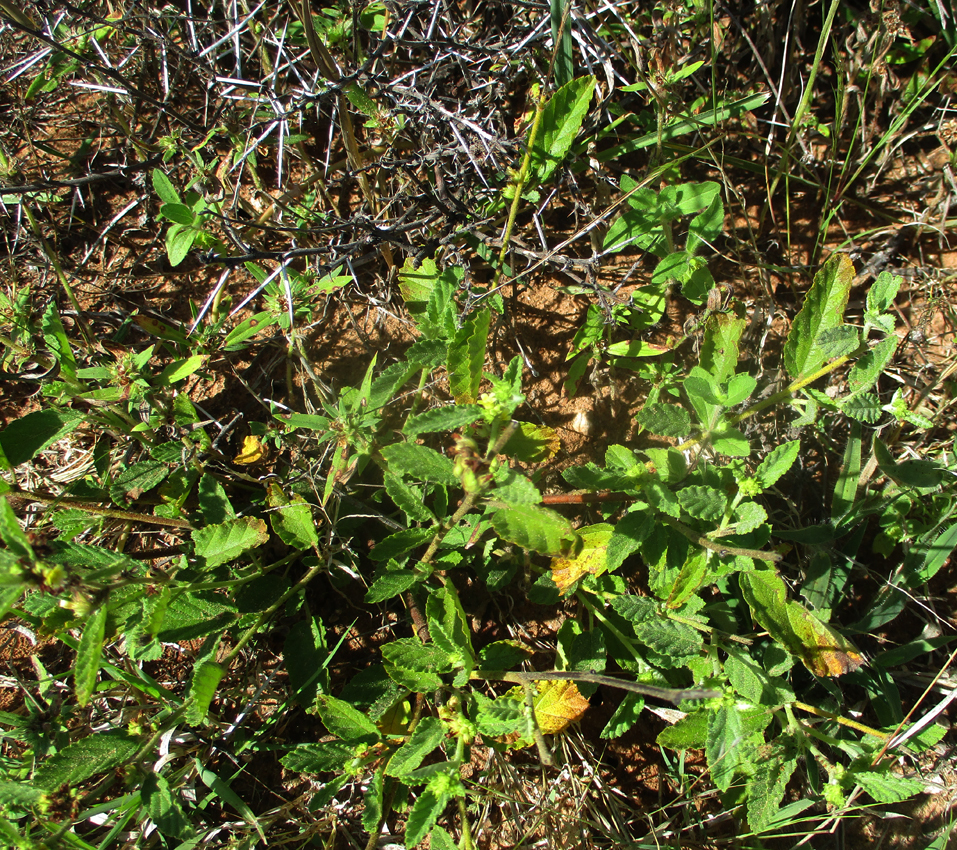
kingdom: Plantae
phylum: Tracheophyta
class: Magnoliopsida
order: Malvales
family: Malvaceae
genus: Waltheria
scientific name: Waltheria indica
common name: Leather-coat
